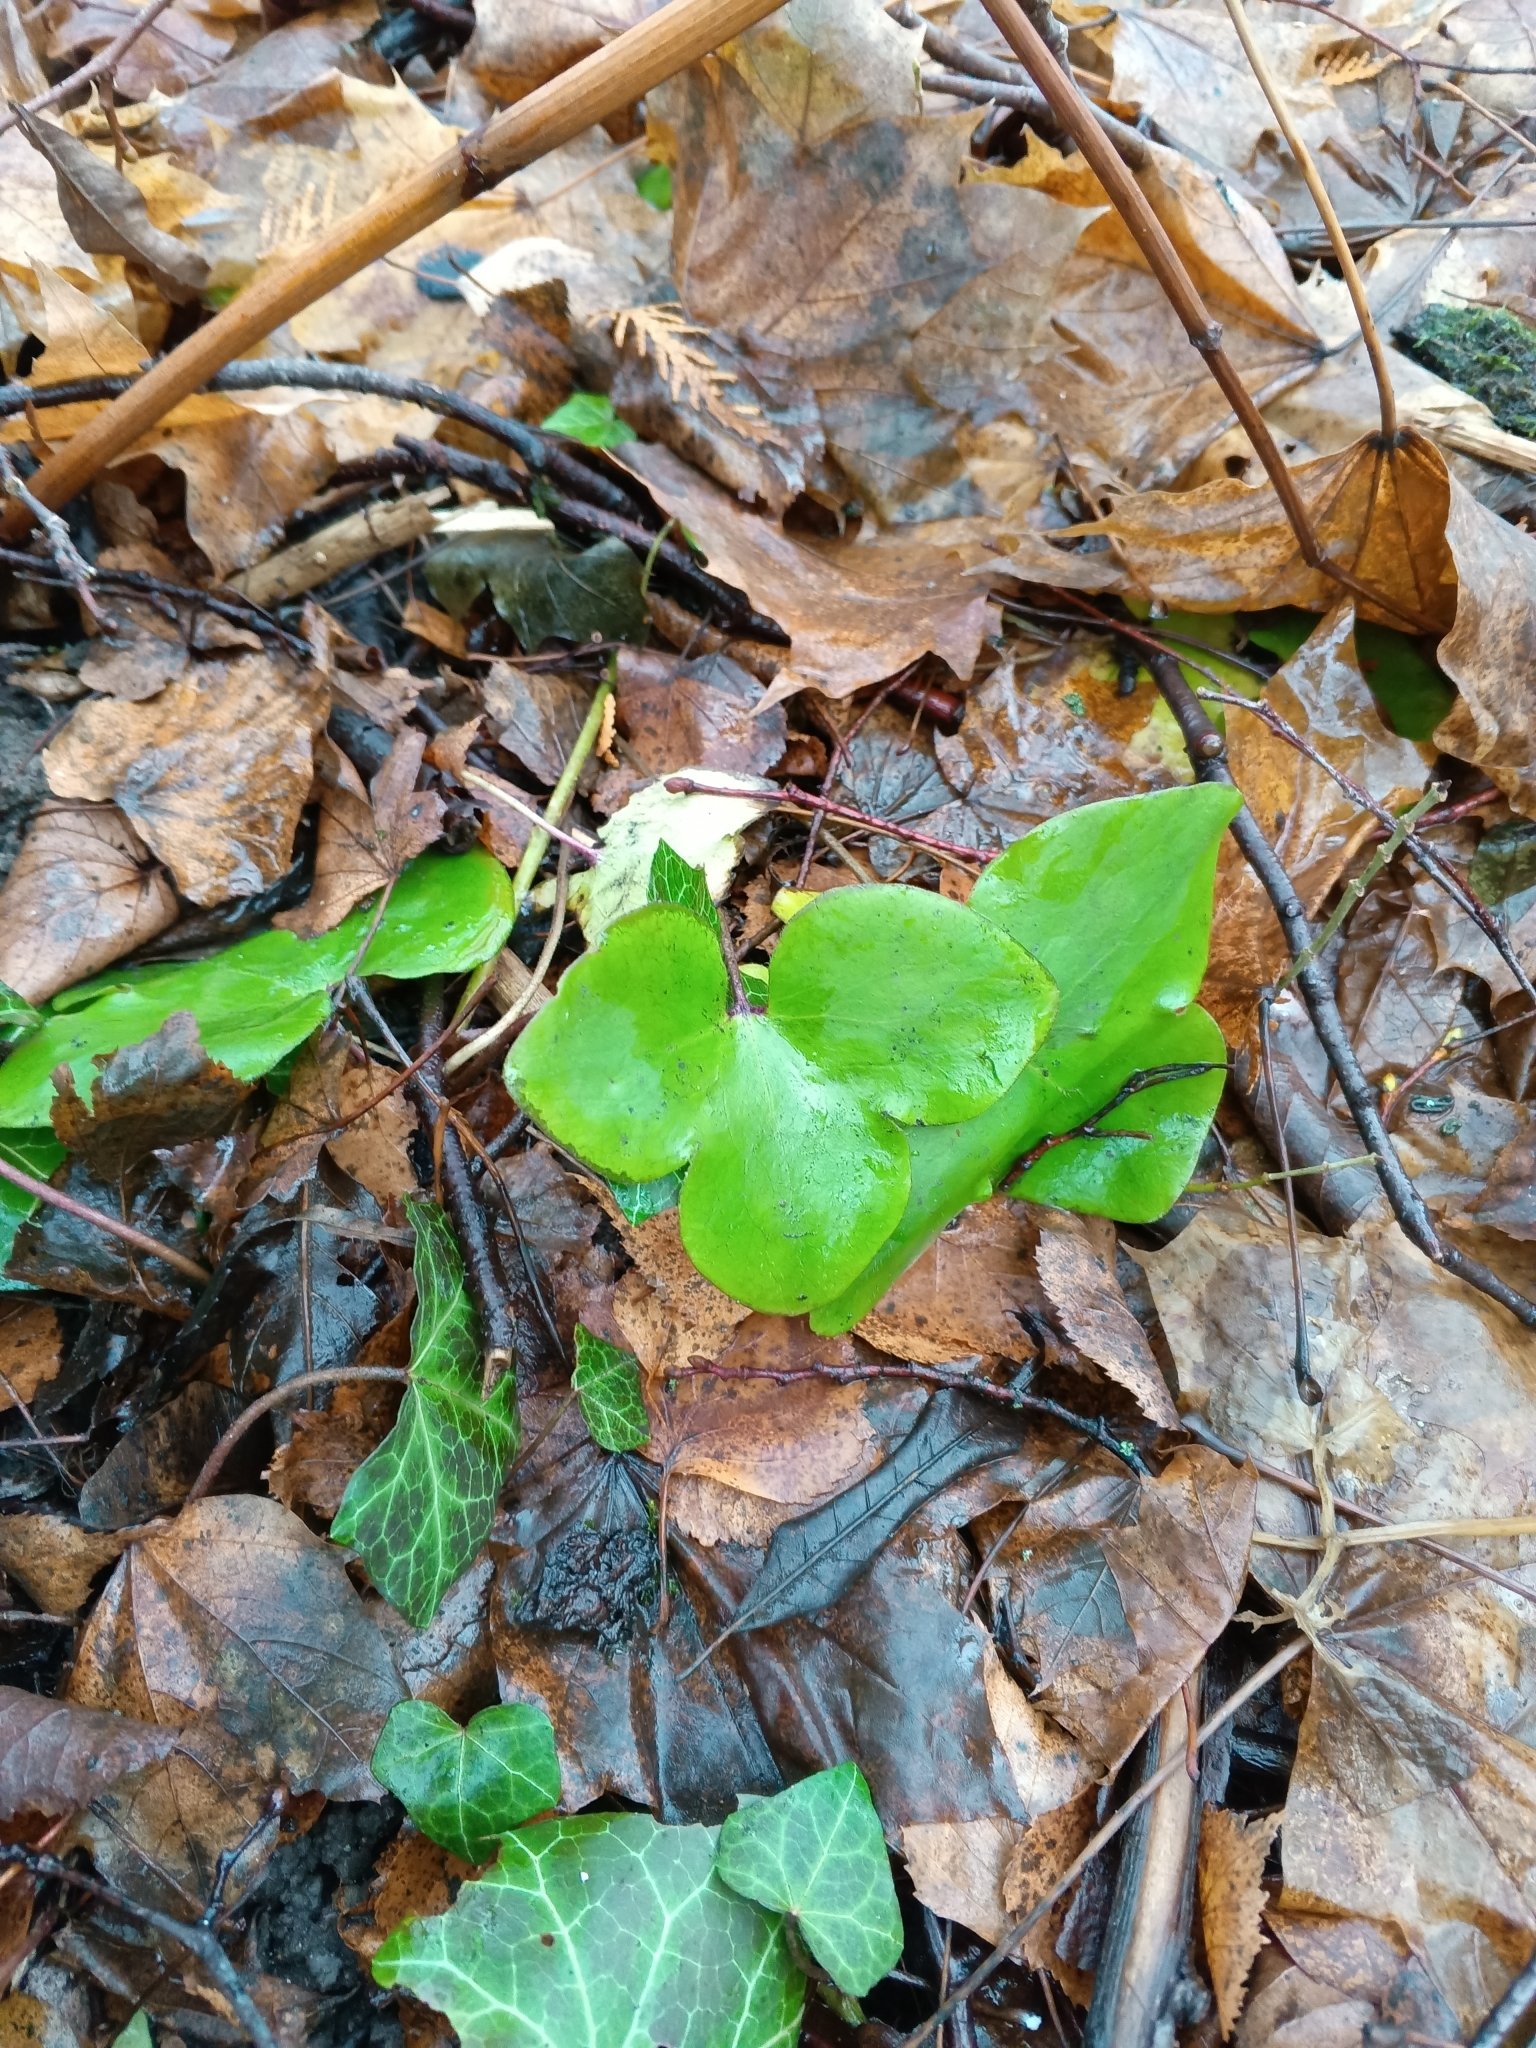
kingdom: Plantae
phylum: Tracheophyta
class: Magnoliopsida
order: Ranunculales
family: Ranunculaceae
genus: Hepatica
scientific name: Hepatica nobilis
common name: Liverleaf
